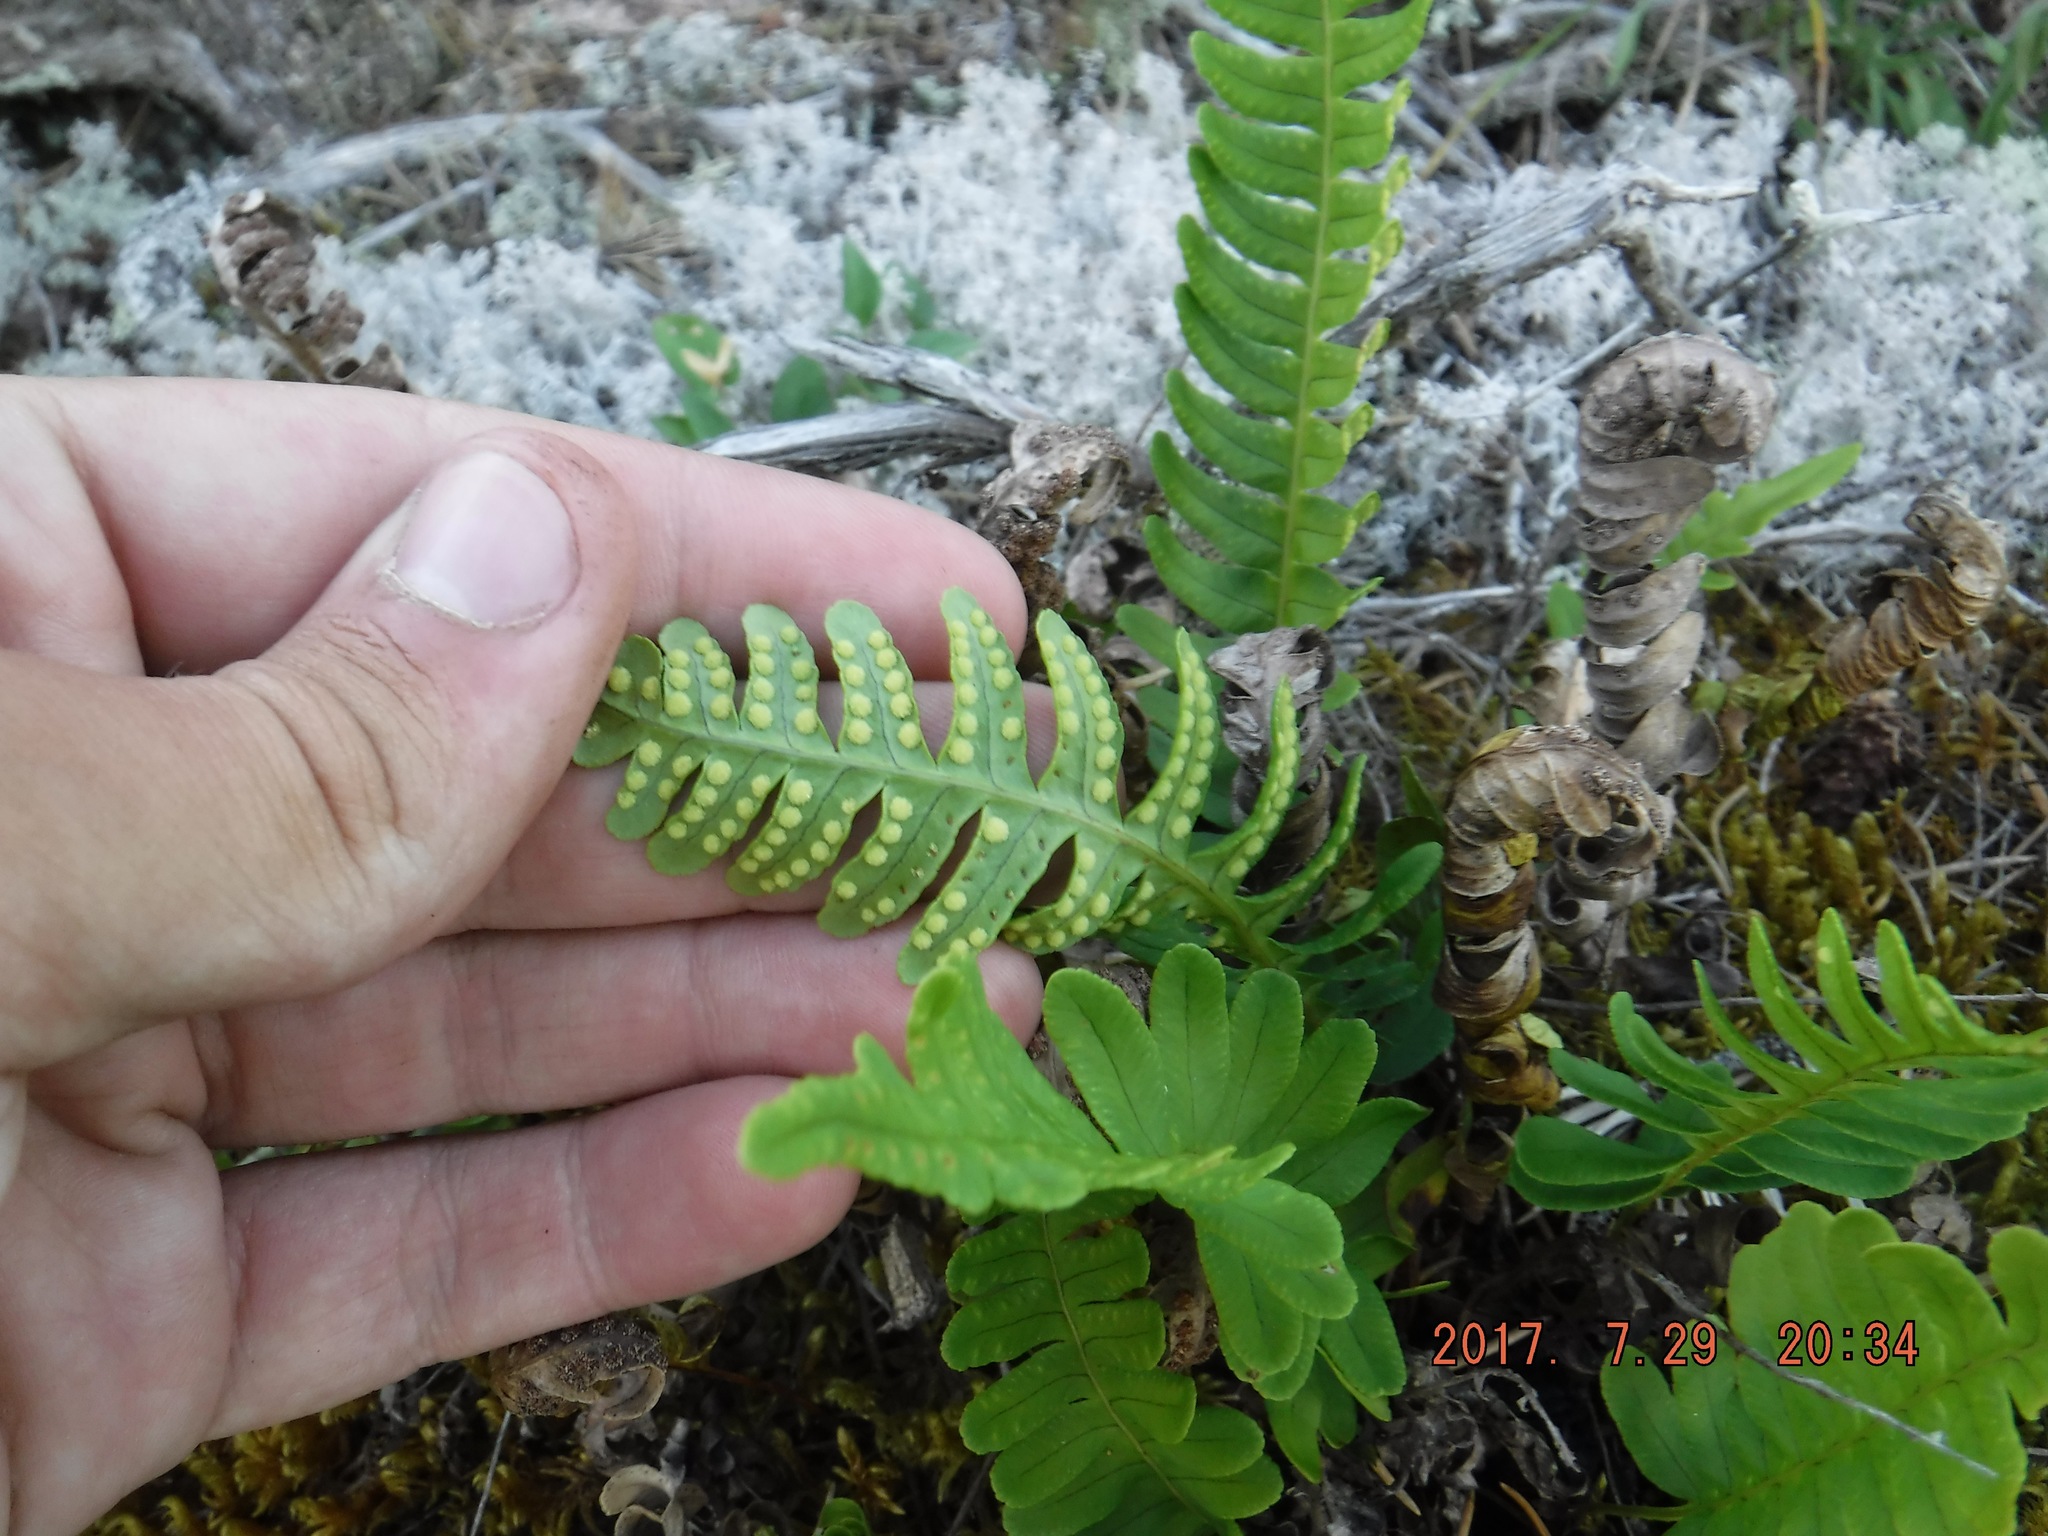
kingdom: Plantae
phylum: Tracheophyta
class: Polypodiopsida
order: Polypodiales
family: Polypodiaceae
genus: Polypodium
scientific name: Polypodium virginianum
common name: American wall fern
